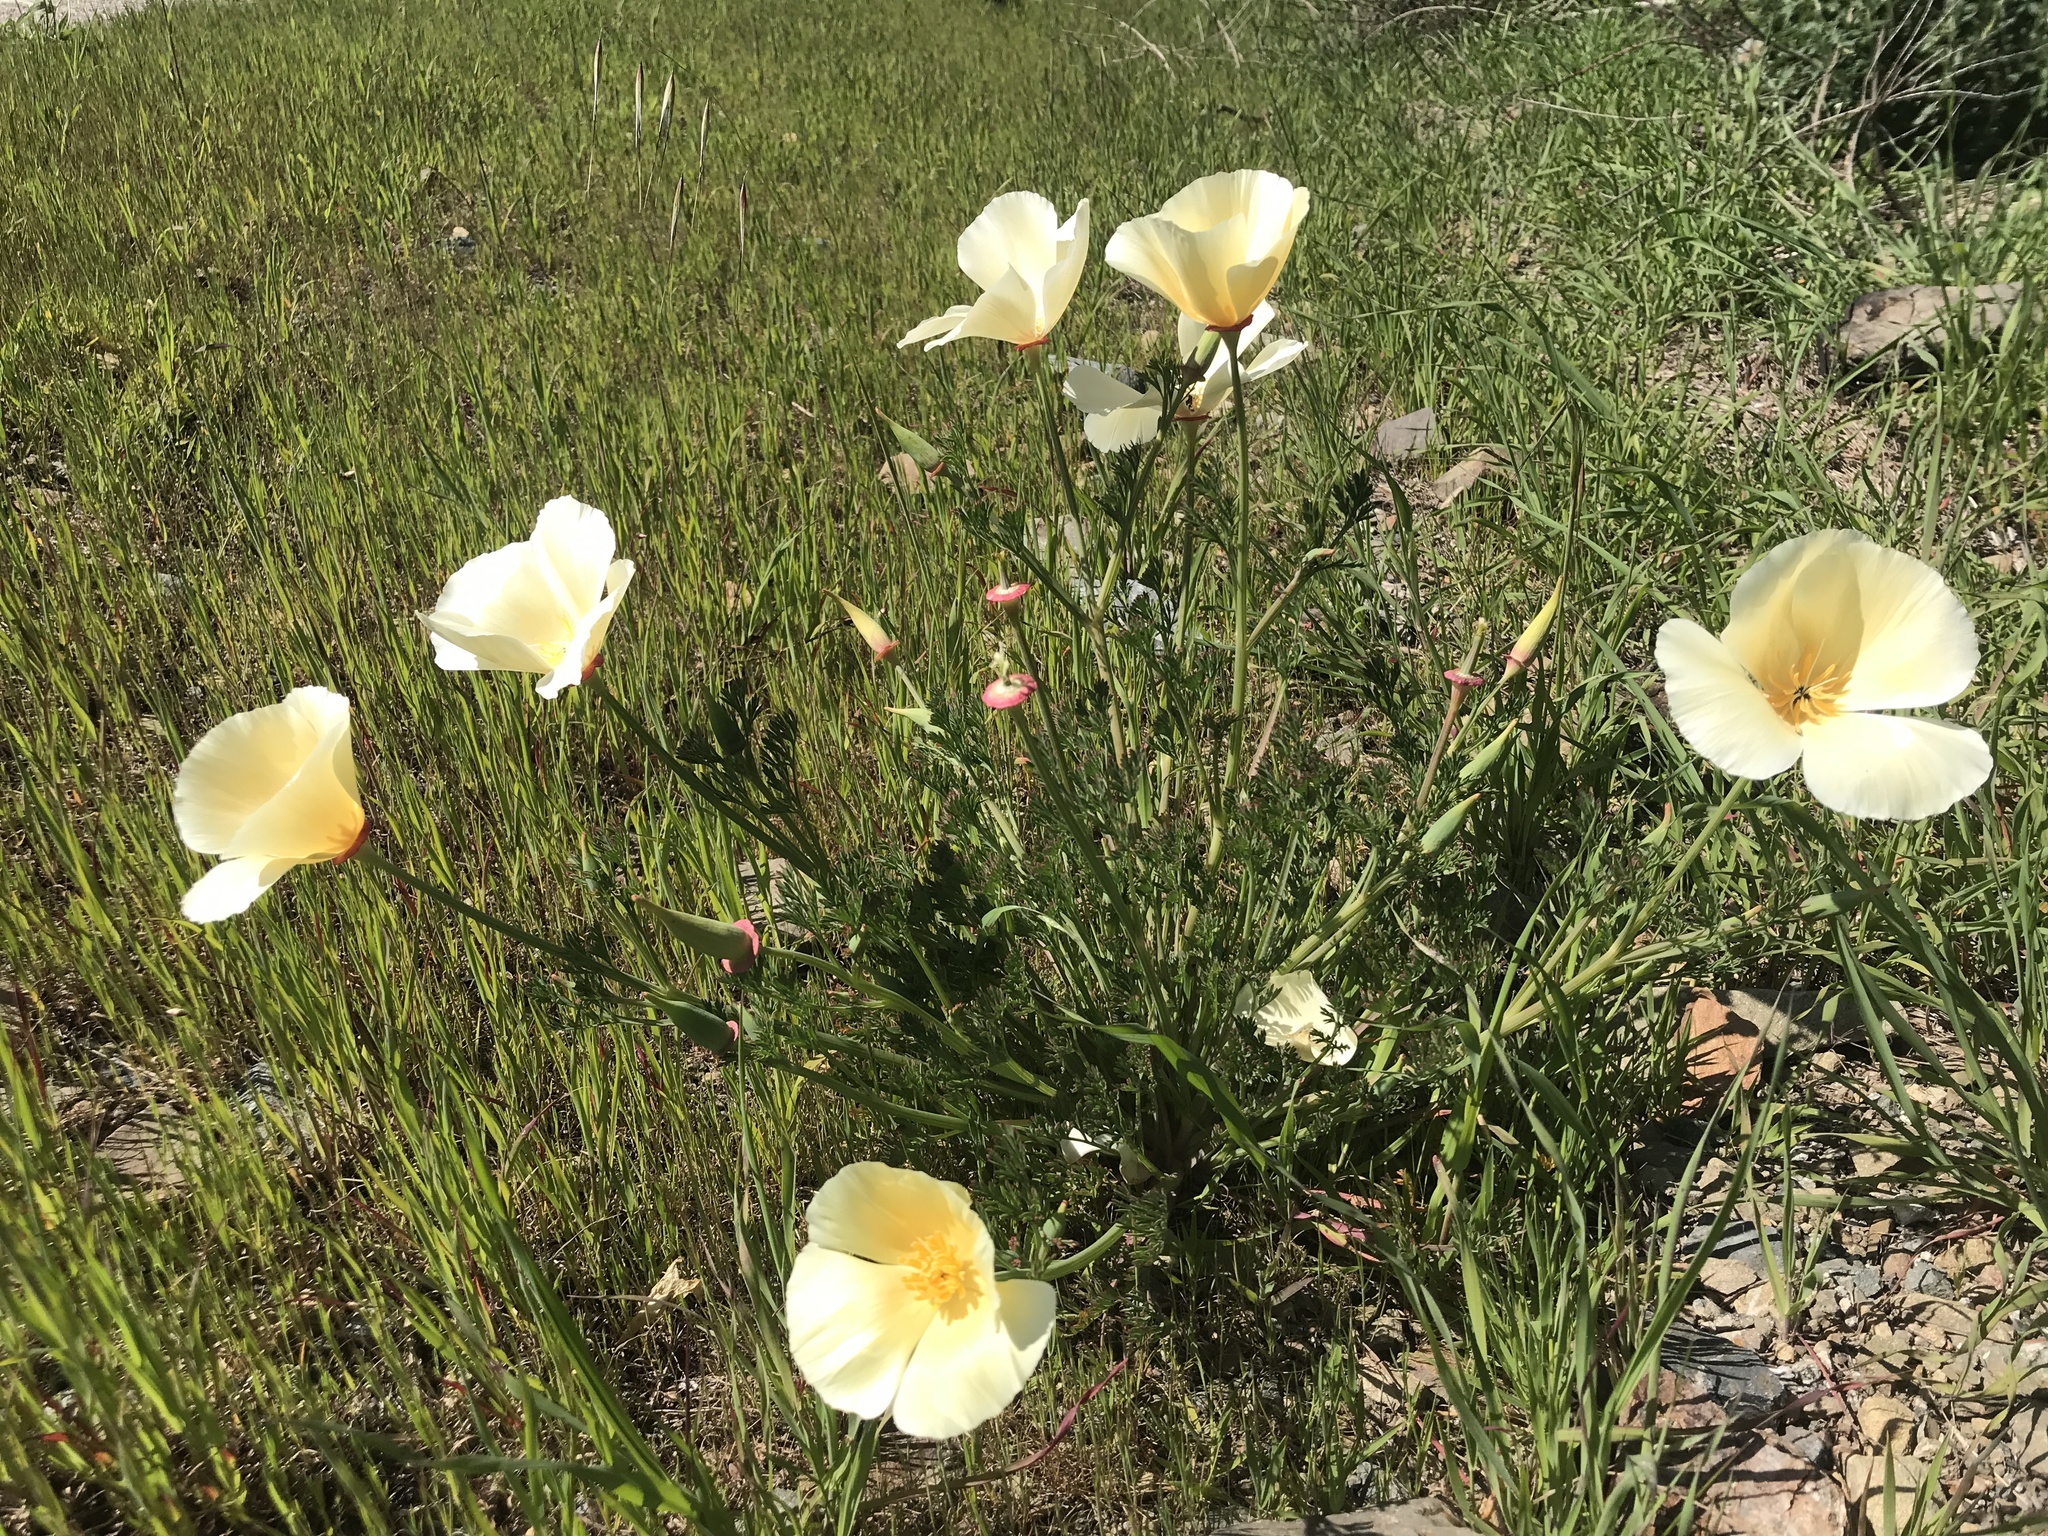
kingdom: Plantae
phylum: Tracheophyta
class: Magnoliopsida
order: Ranunculales
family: Papaveraceae
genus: Eschscholzia
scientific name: Eschscholzia californica
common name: California poppy
